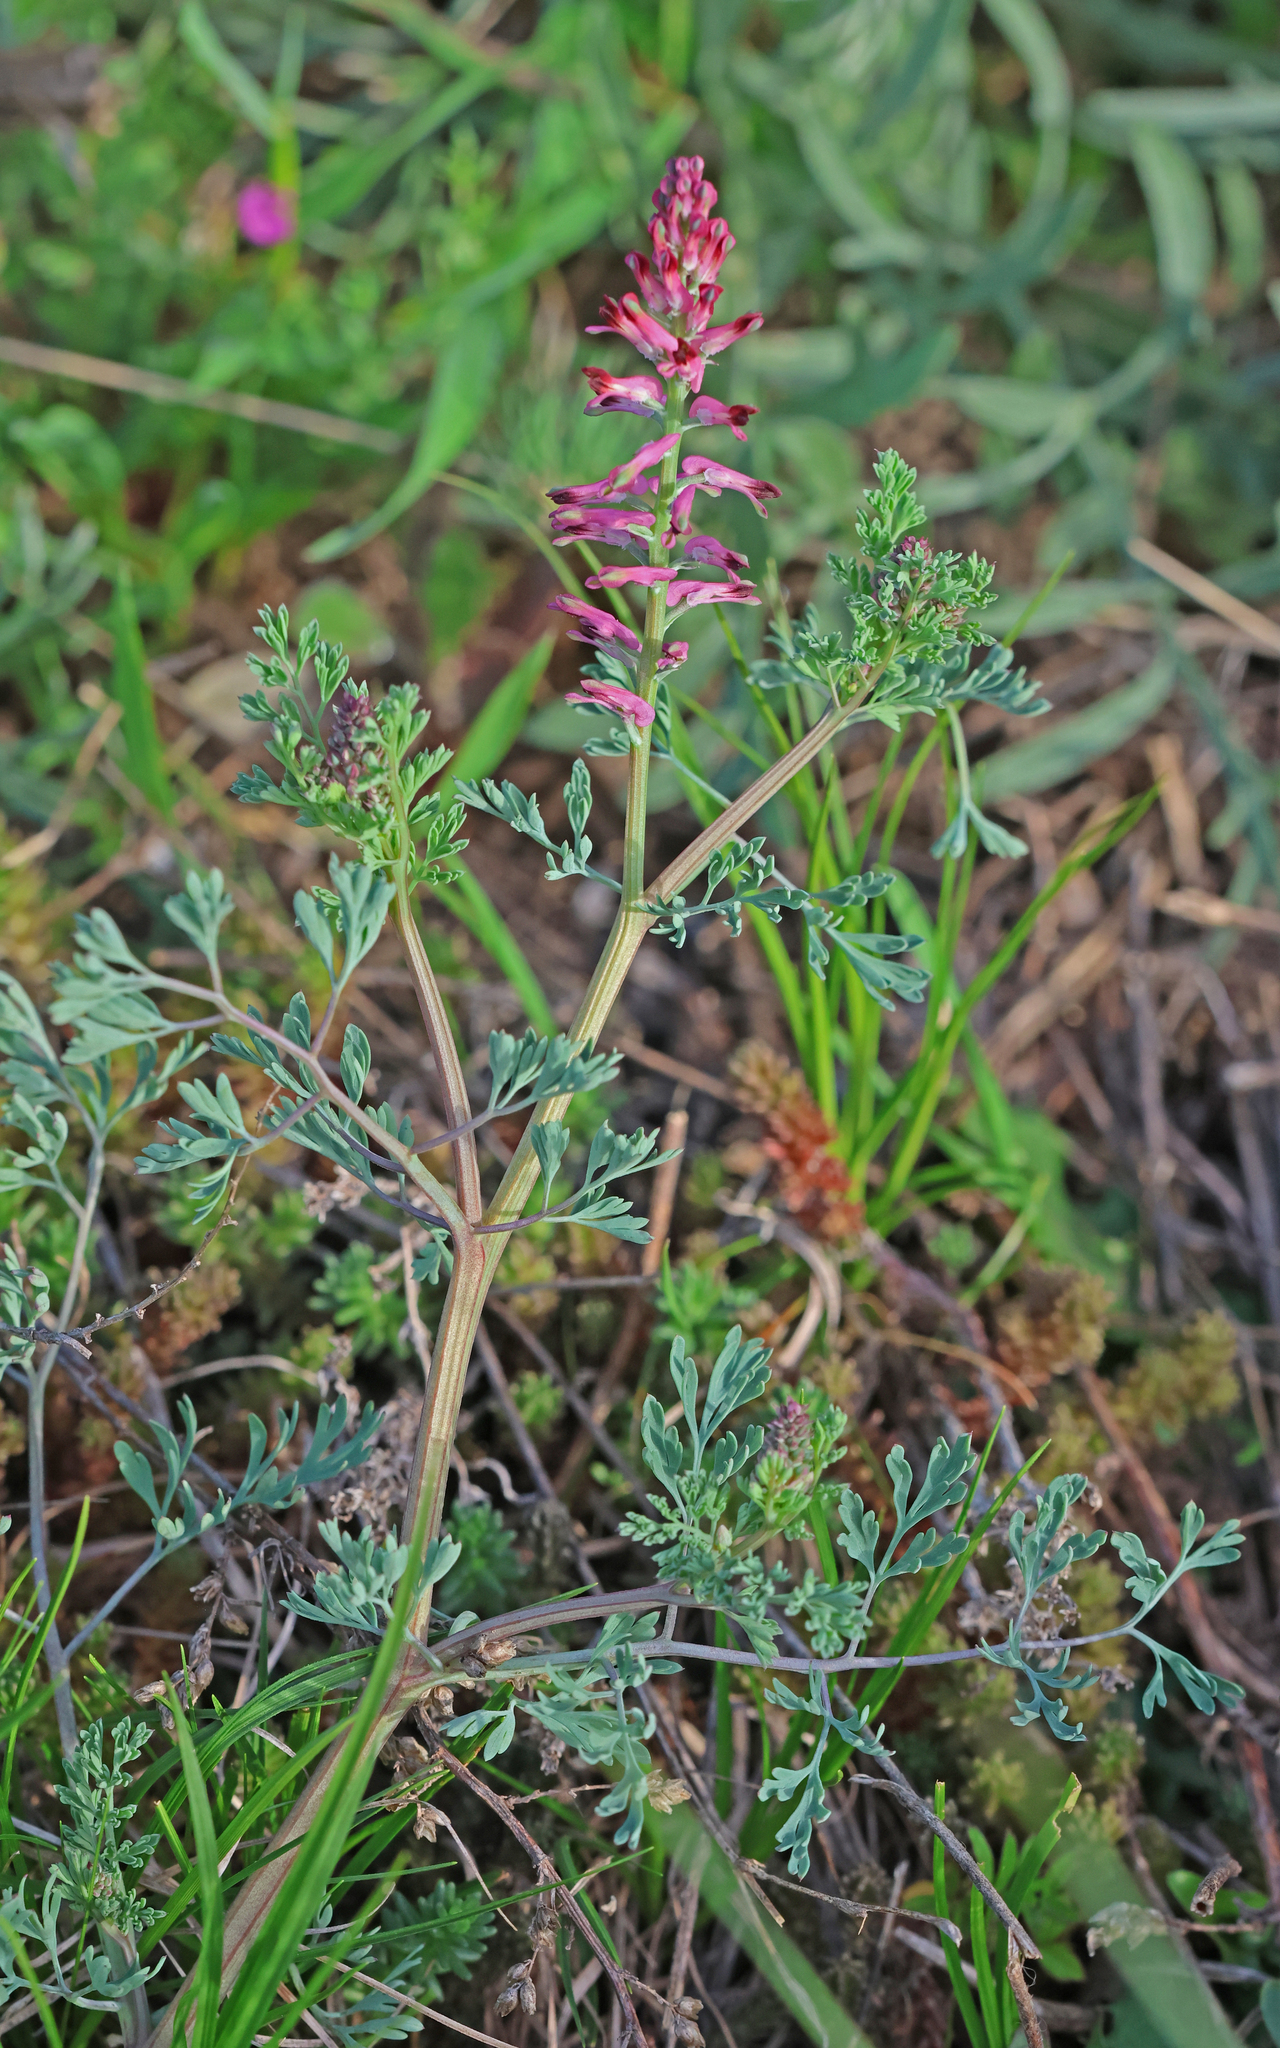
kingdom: Plantae
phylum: Tracheophyta
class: Magnoliopsida
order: Ranunculales
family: Papaveraceae
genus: Fumaria
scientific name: Fumaria officinalis
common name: Common fumitory
